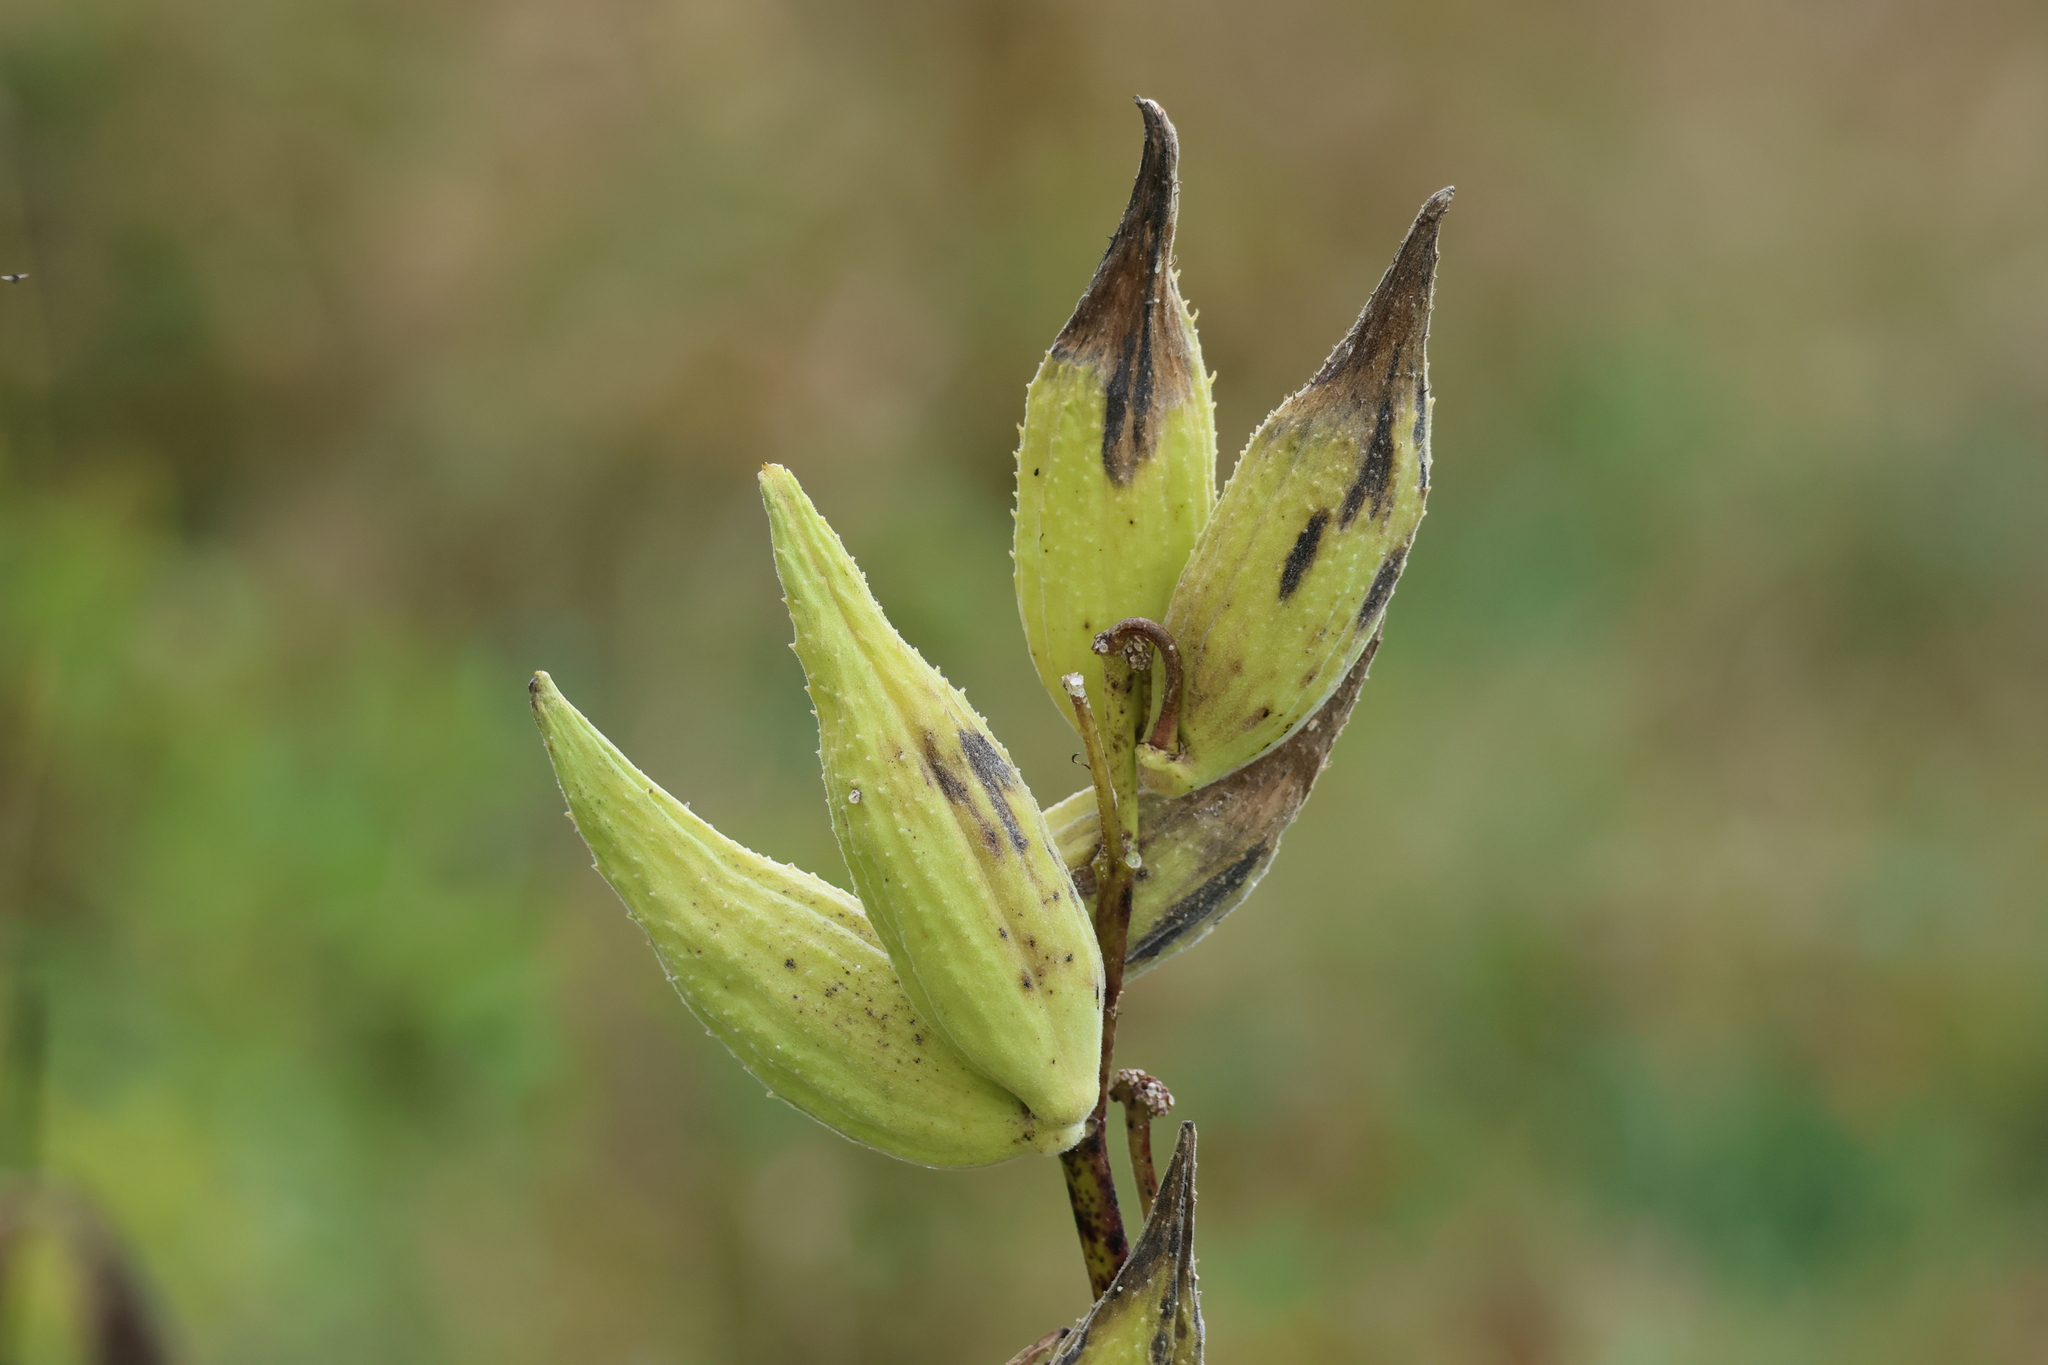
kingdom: Plantae
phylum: Tracheophyta
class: Magnoliopsida
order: Gentianales
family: Apocynaceae
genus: Asclepias
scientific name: Asclepias syriaca
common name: Common milkweed
